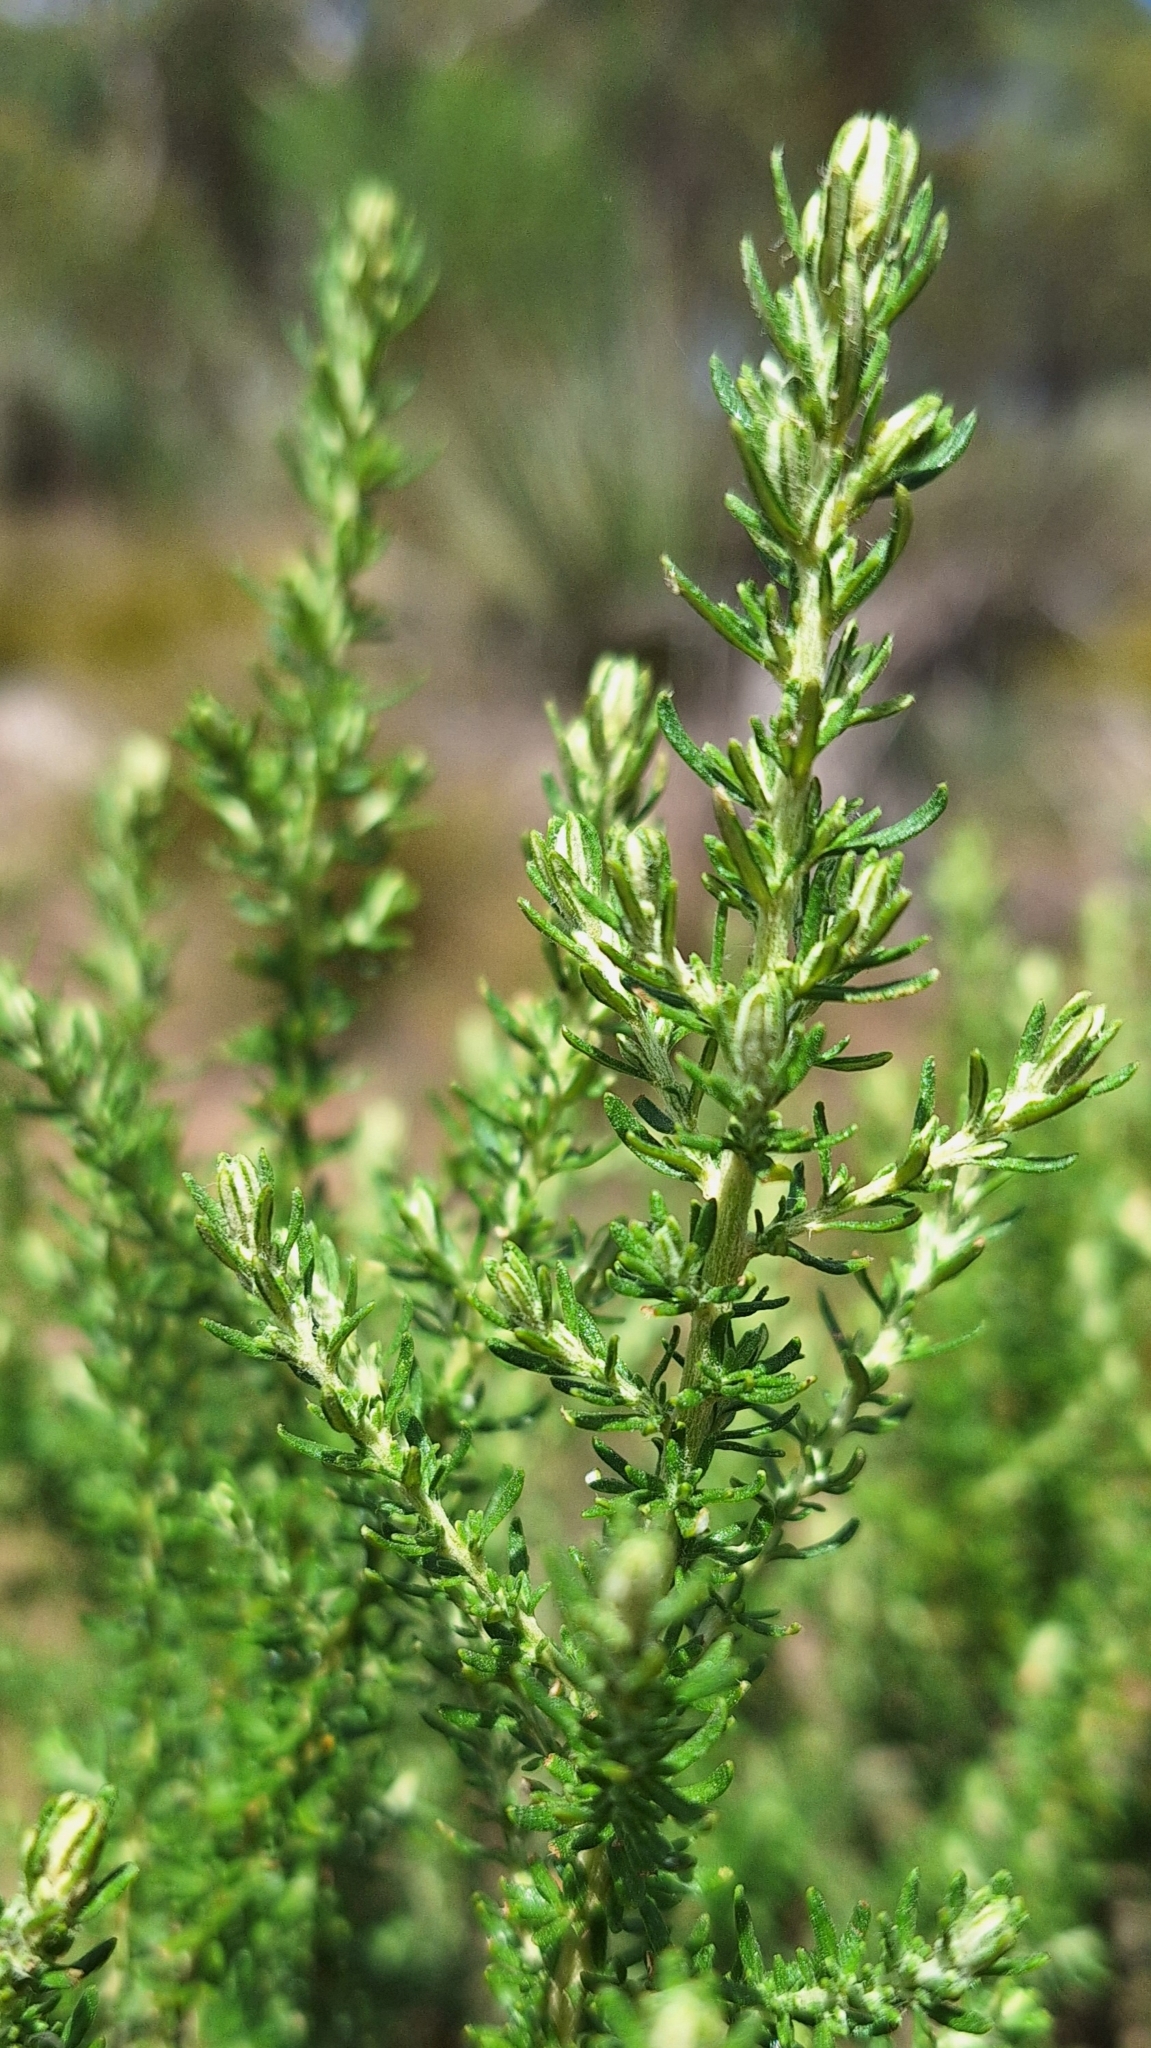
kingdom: Plantae
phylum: Tracheophyta
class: Magnoliopsida
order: Asterales
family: Asteraceae
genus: Olearia
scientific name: Olearia ramulosa
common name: Twiggy daisybush
